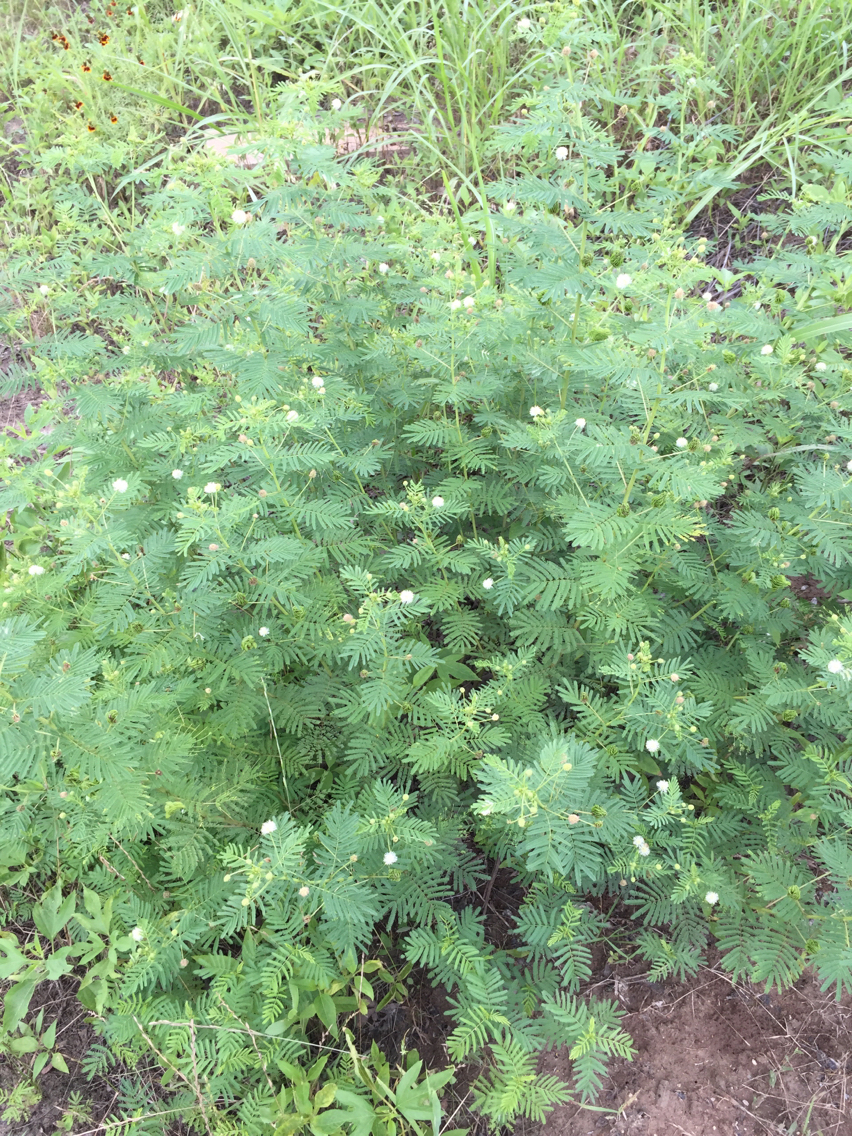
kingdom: Plantae
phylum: Tracheophyta
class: Magnoliopsida
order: Fabales
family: Fabaceae
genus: Desmanthus
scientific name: Desmanthus illinoensis
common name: Illinois bundle-flower
